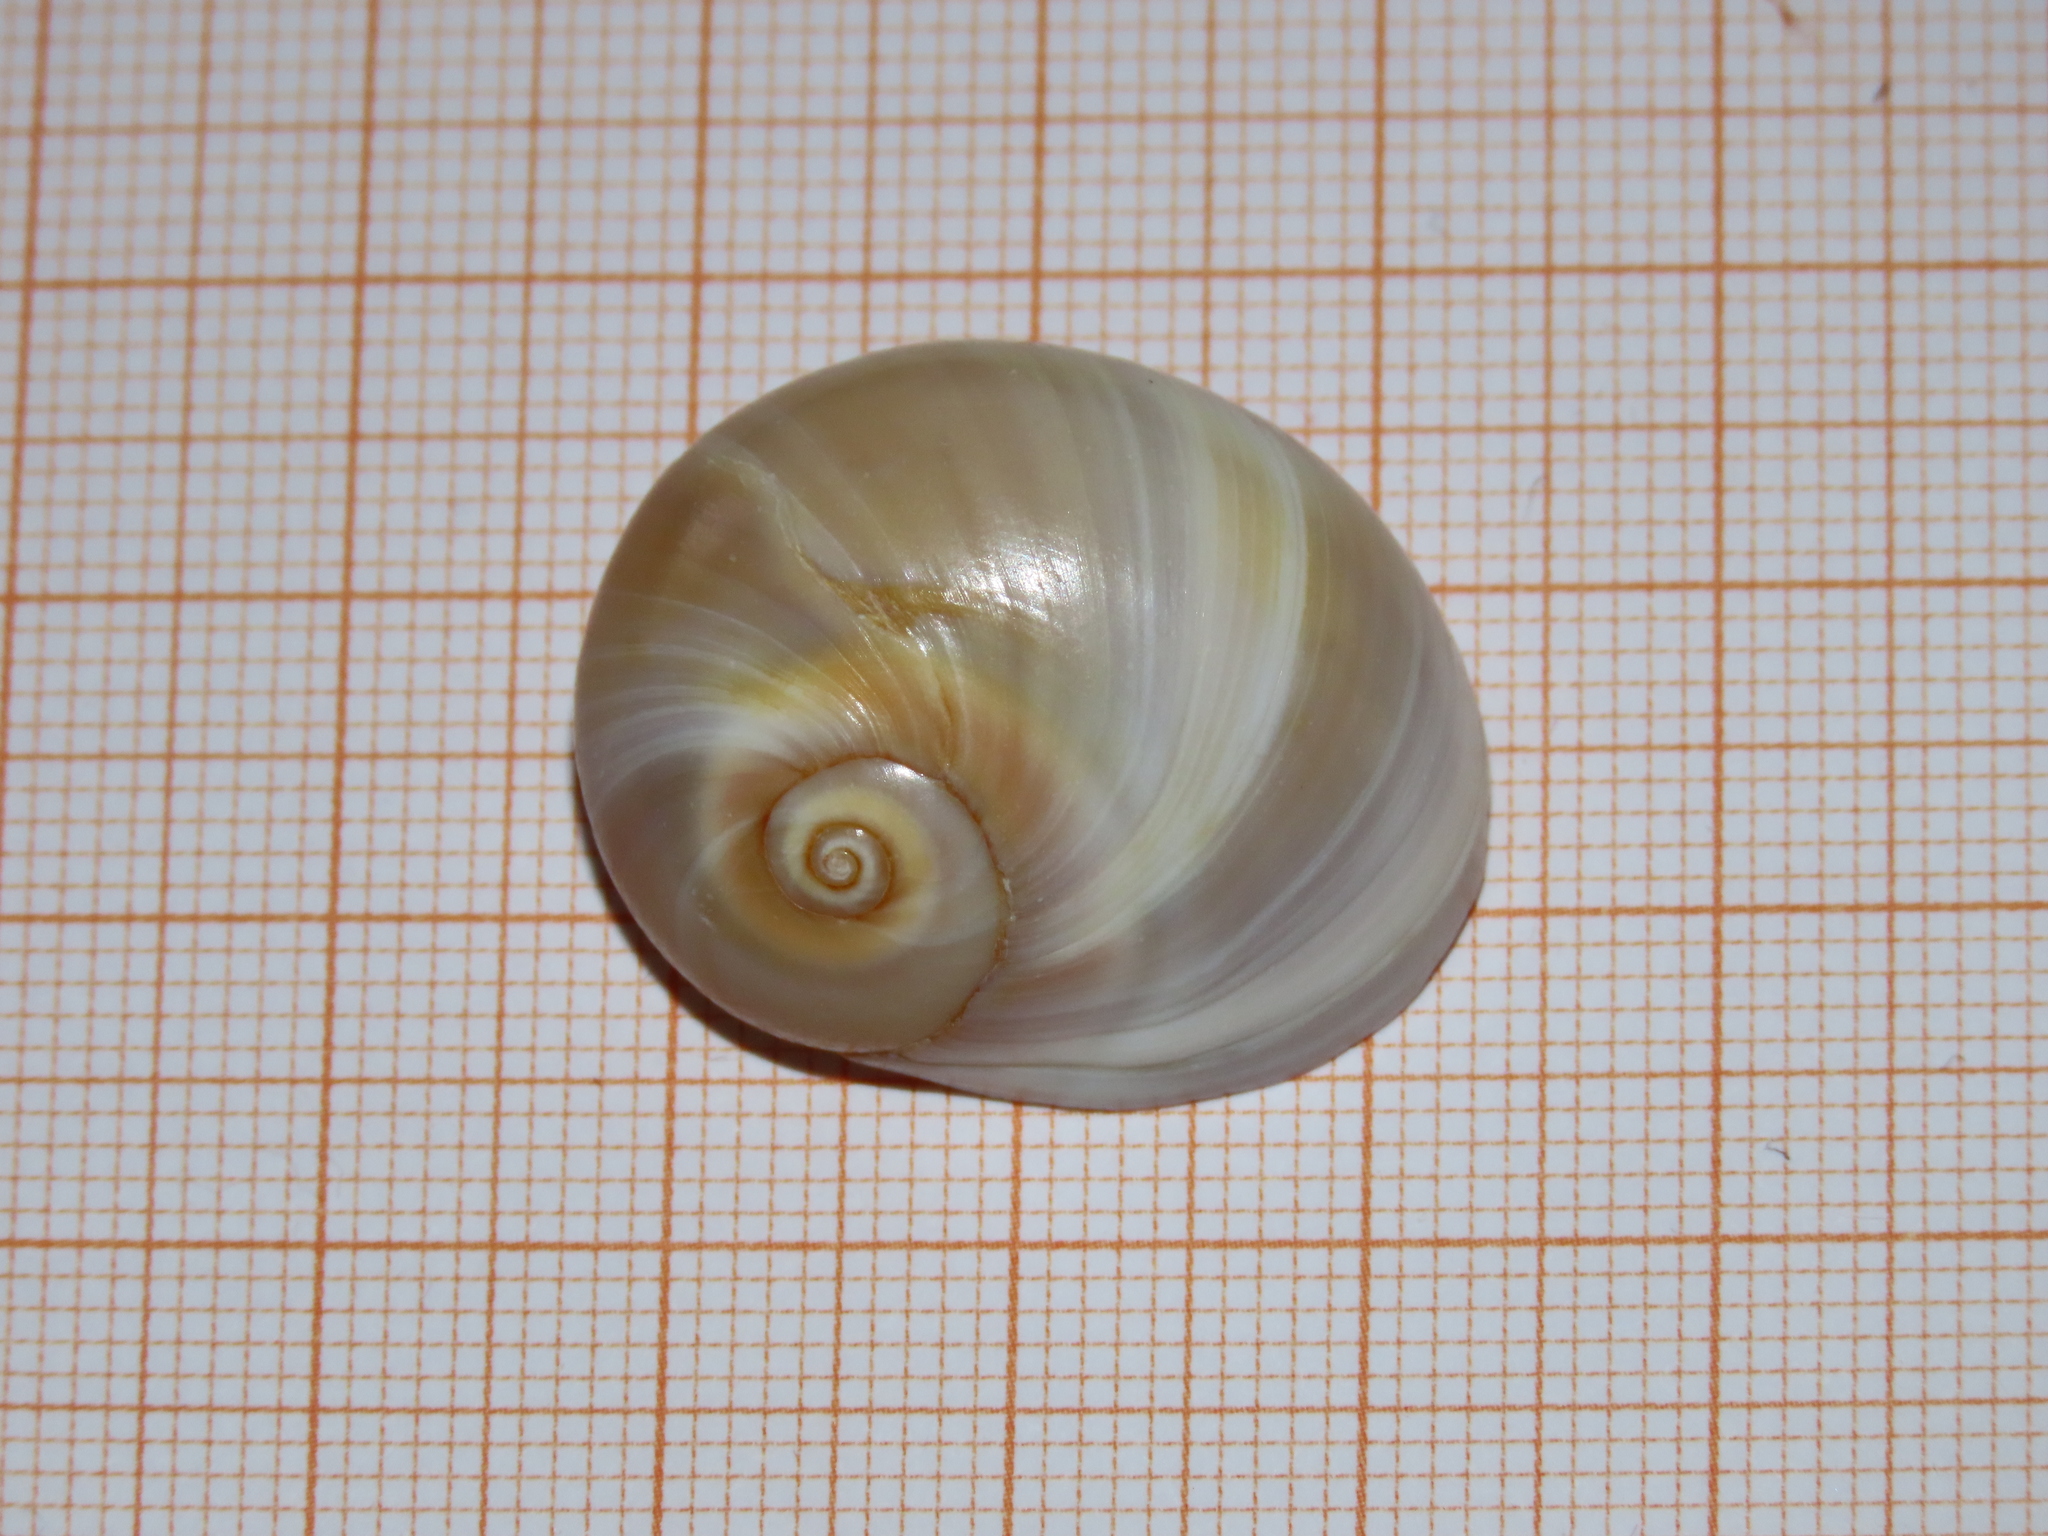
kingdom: Animalia
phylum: Mollusca
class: Gastropoda
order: Littorinimorpha
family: Naticidae
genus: Neverita
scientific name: Neverita josephinia
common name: Josephine's moonsnail
